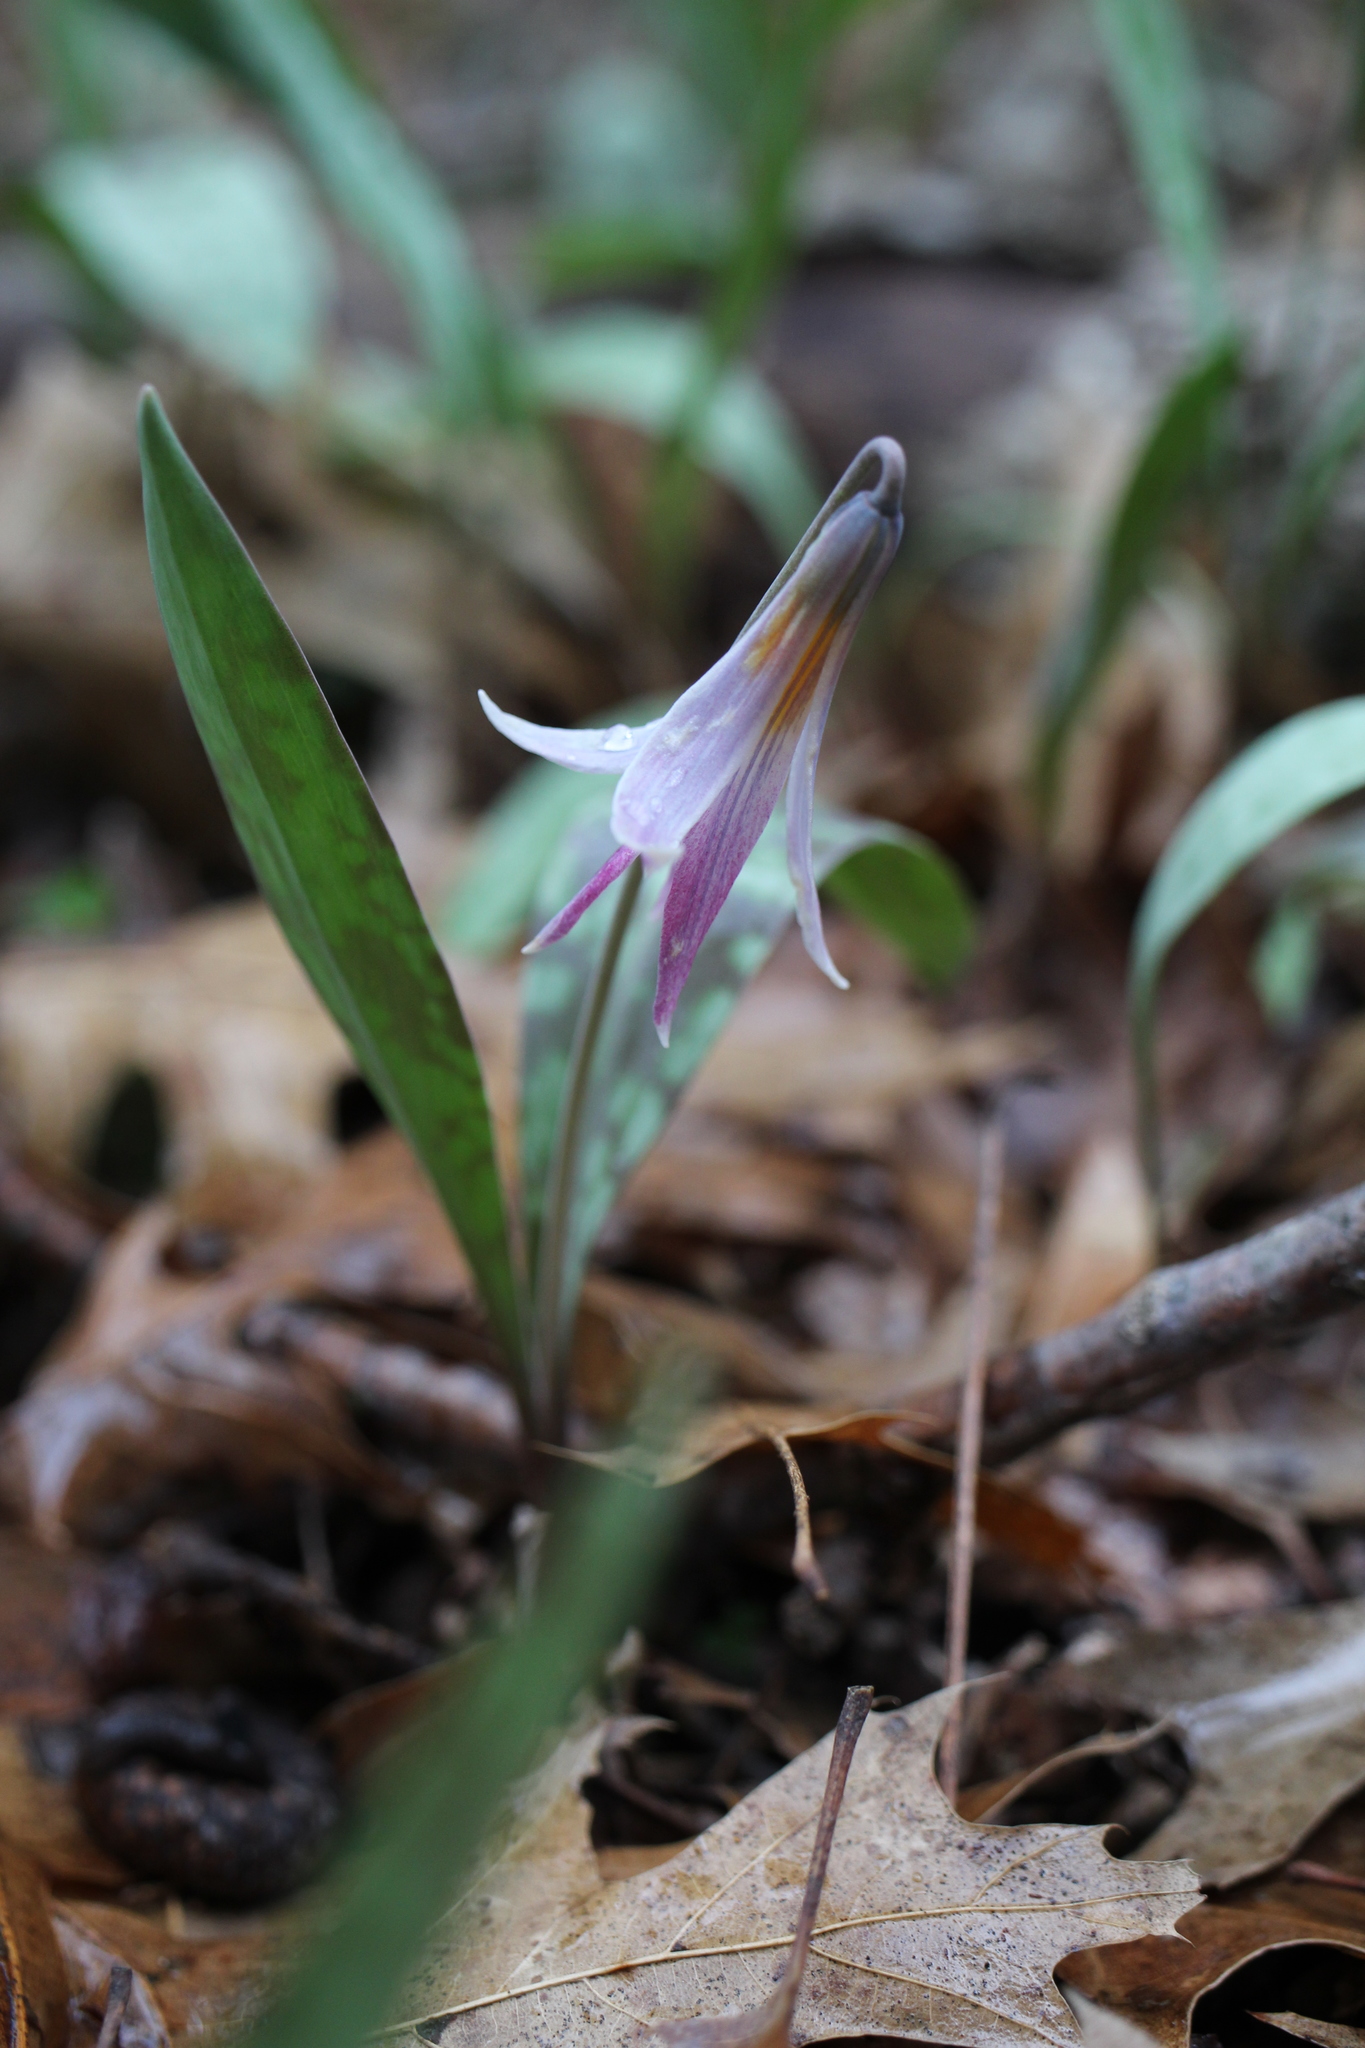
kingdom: Plantae
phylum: Tracheophyta
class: Liliopsida
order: Liliales
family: Liliaceae
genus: Erythronium
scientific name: Erythronium albidum
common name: White trout-lily
